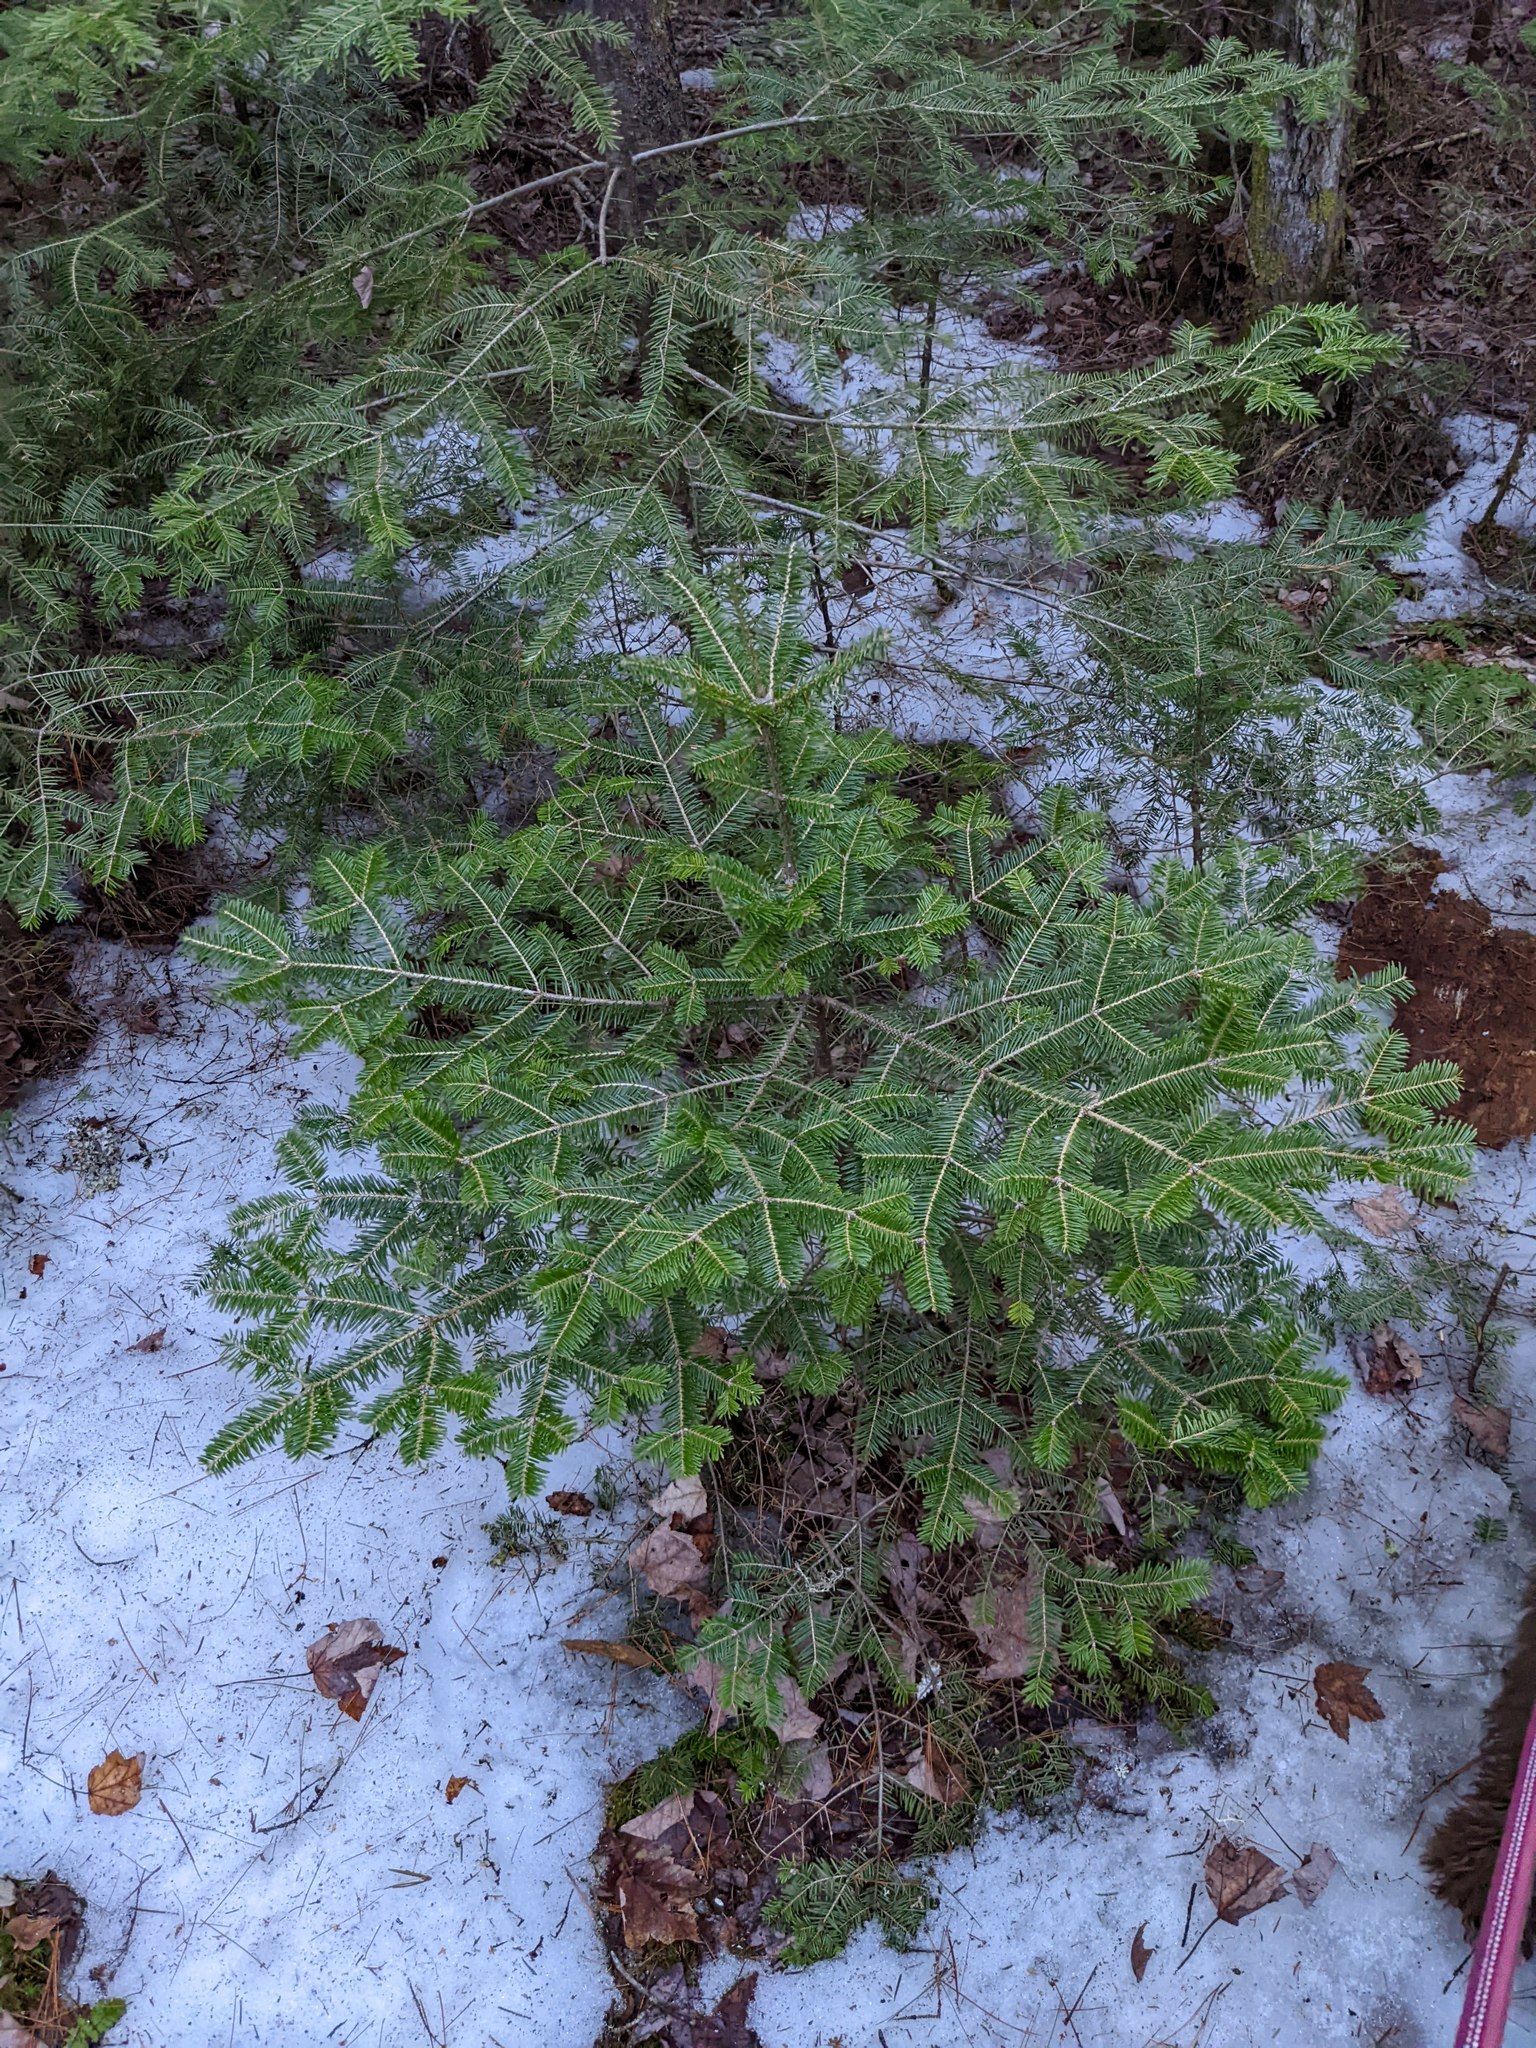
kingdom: Plantae
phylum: Tracheophyta
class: Pinopsida
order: Pinales
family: Pinaceae
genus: Abies
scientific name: Abies balsamea
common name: Balsam fir
